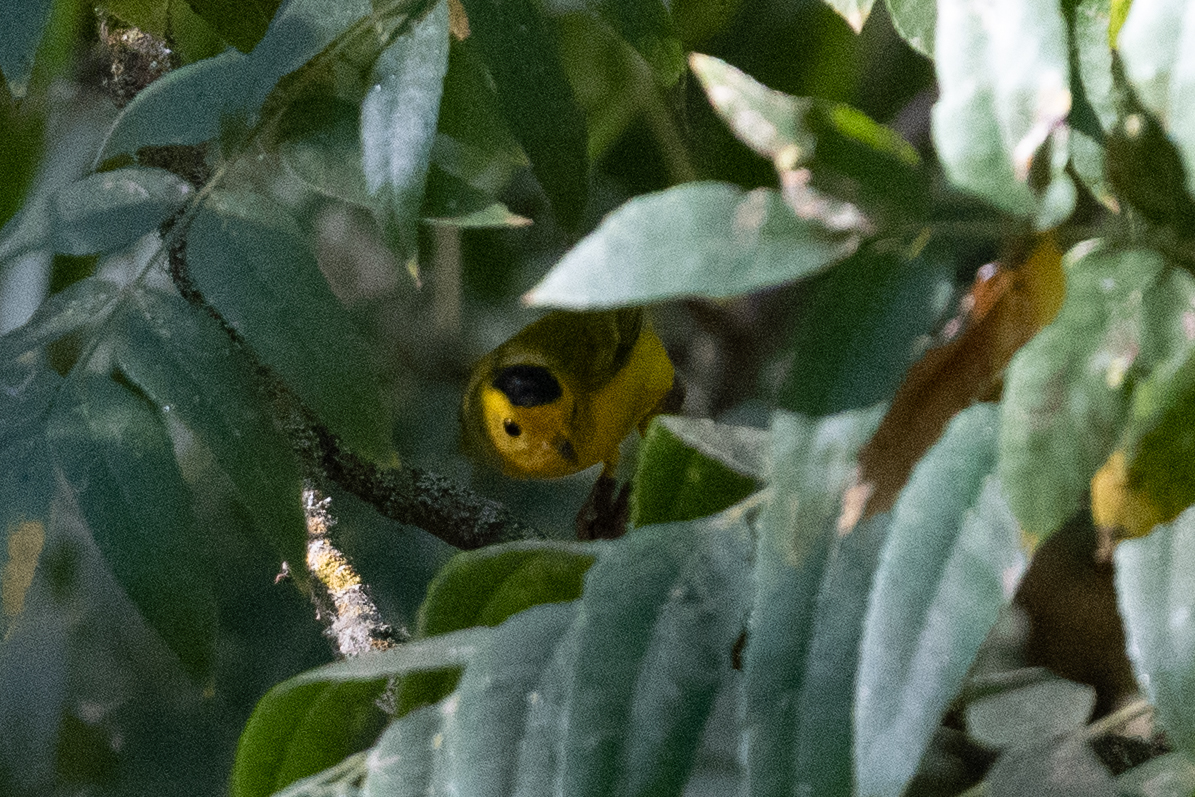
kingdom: Animalia
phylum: Chordata
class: Aves
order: Passeriformes
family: Parulidae
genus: Cardellina
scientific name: Cardellina pusilla
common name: Wilson's warbler
